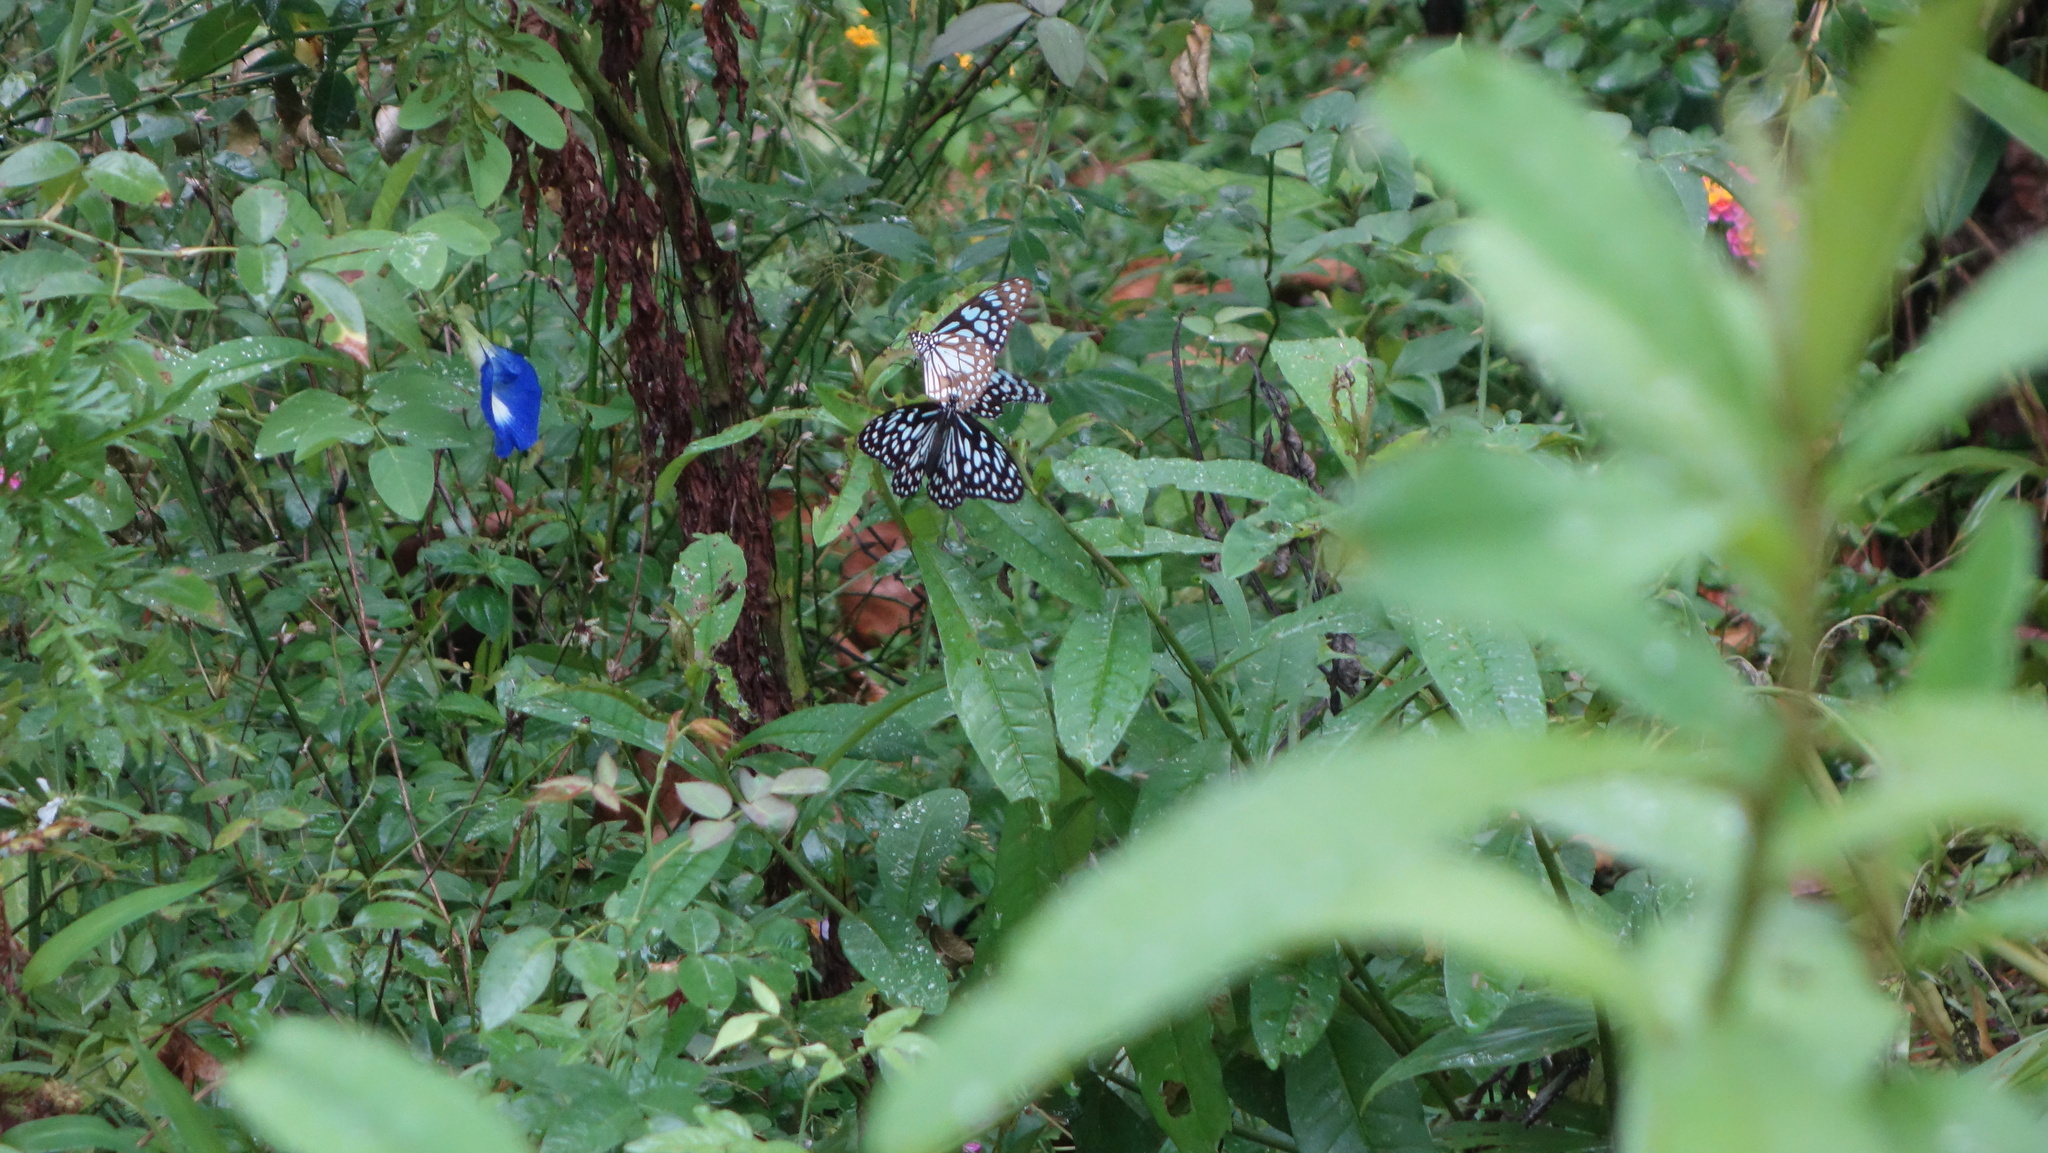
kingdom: Animalia
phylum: Arthropoda
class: Insecta
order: Lepidoptera
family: Nymphalidae
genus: Tirumala
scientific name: Tirumala limniace
